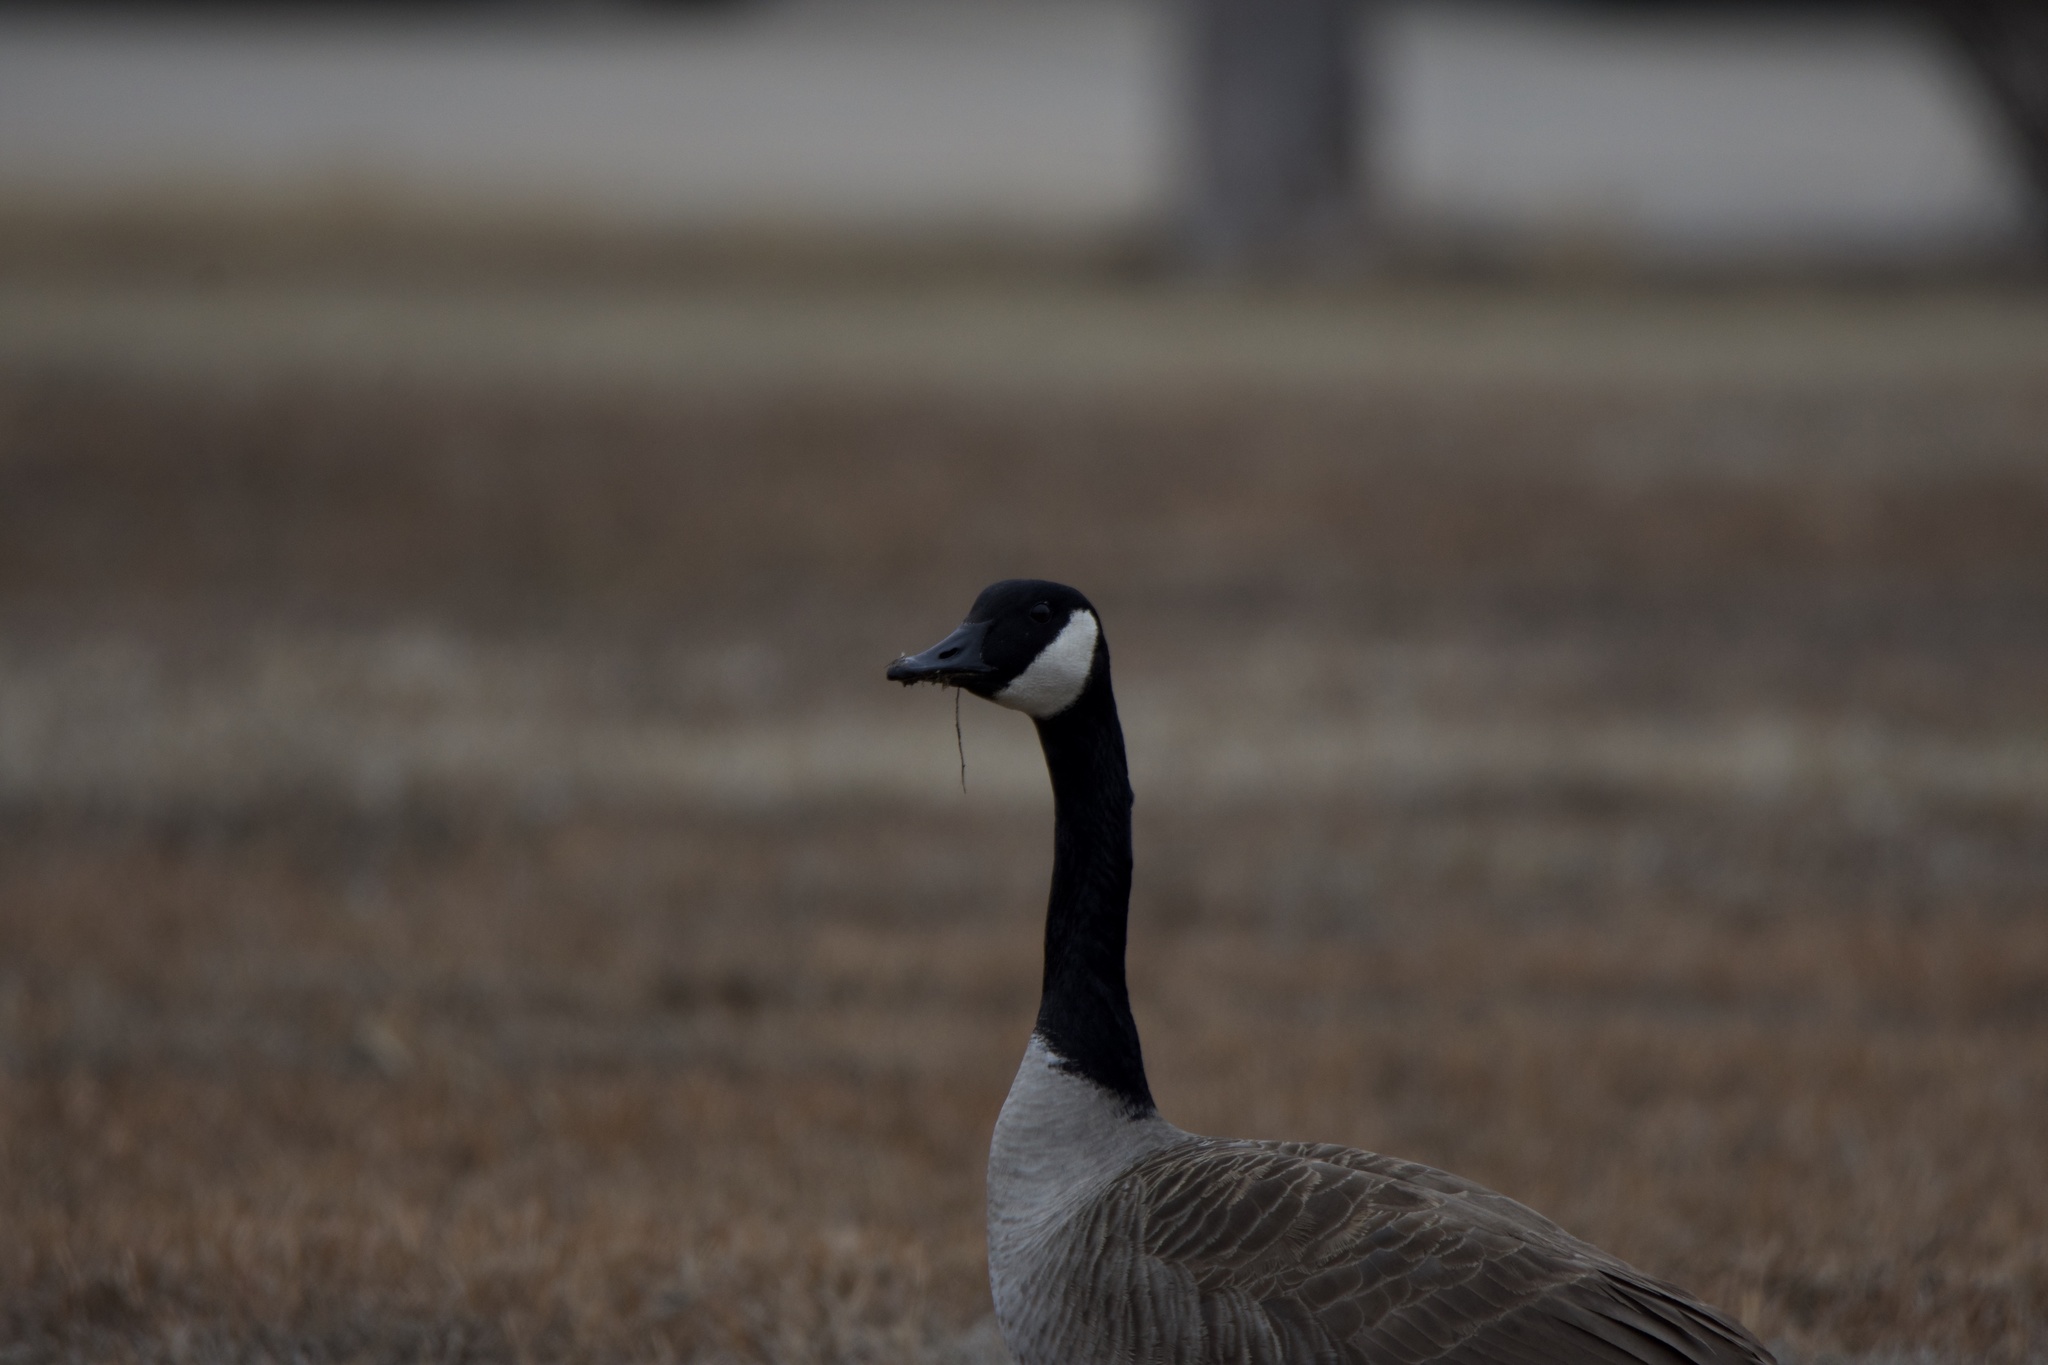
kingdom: Animalia
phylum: Chordata
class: Aves
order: Anseriformes
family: Anatidae
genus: Branta
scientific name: Branta canadensis
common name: Canada goose
